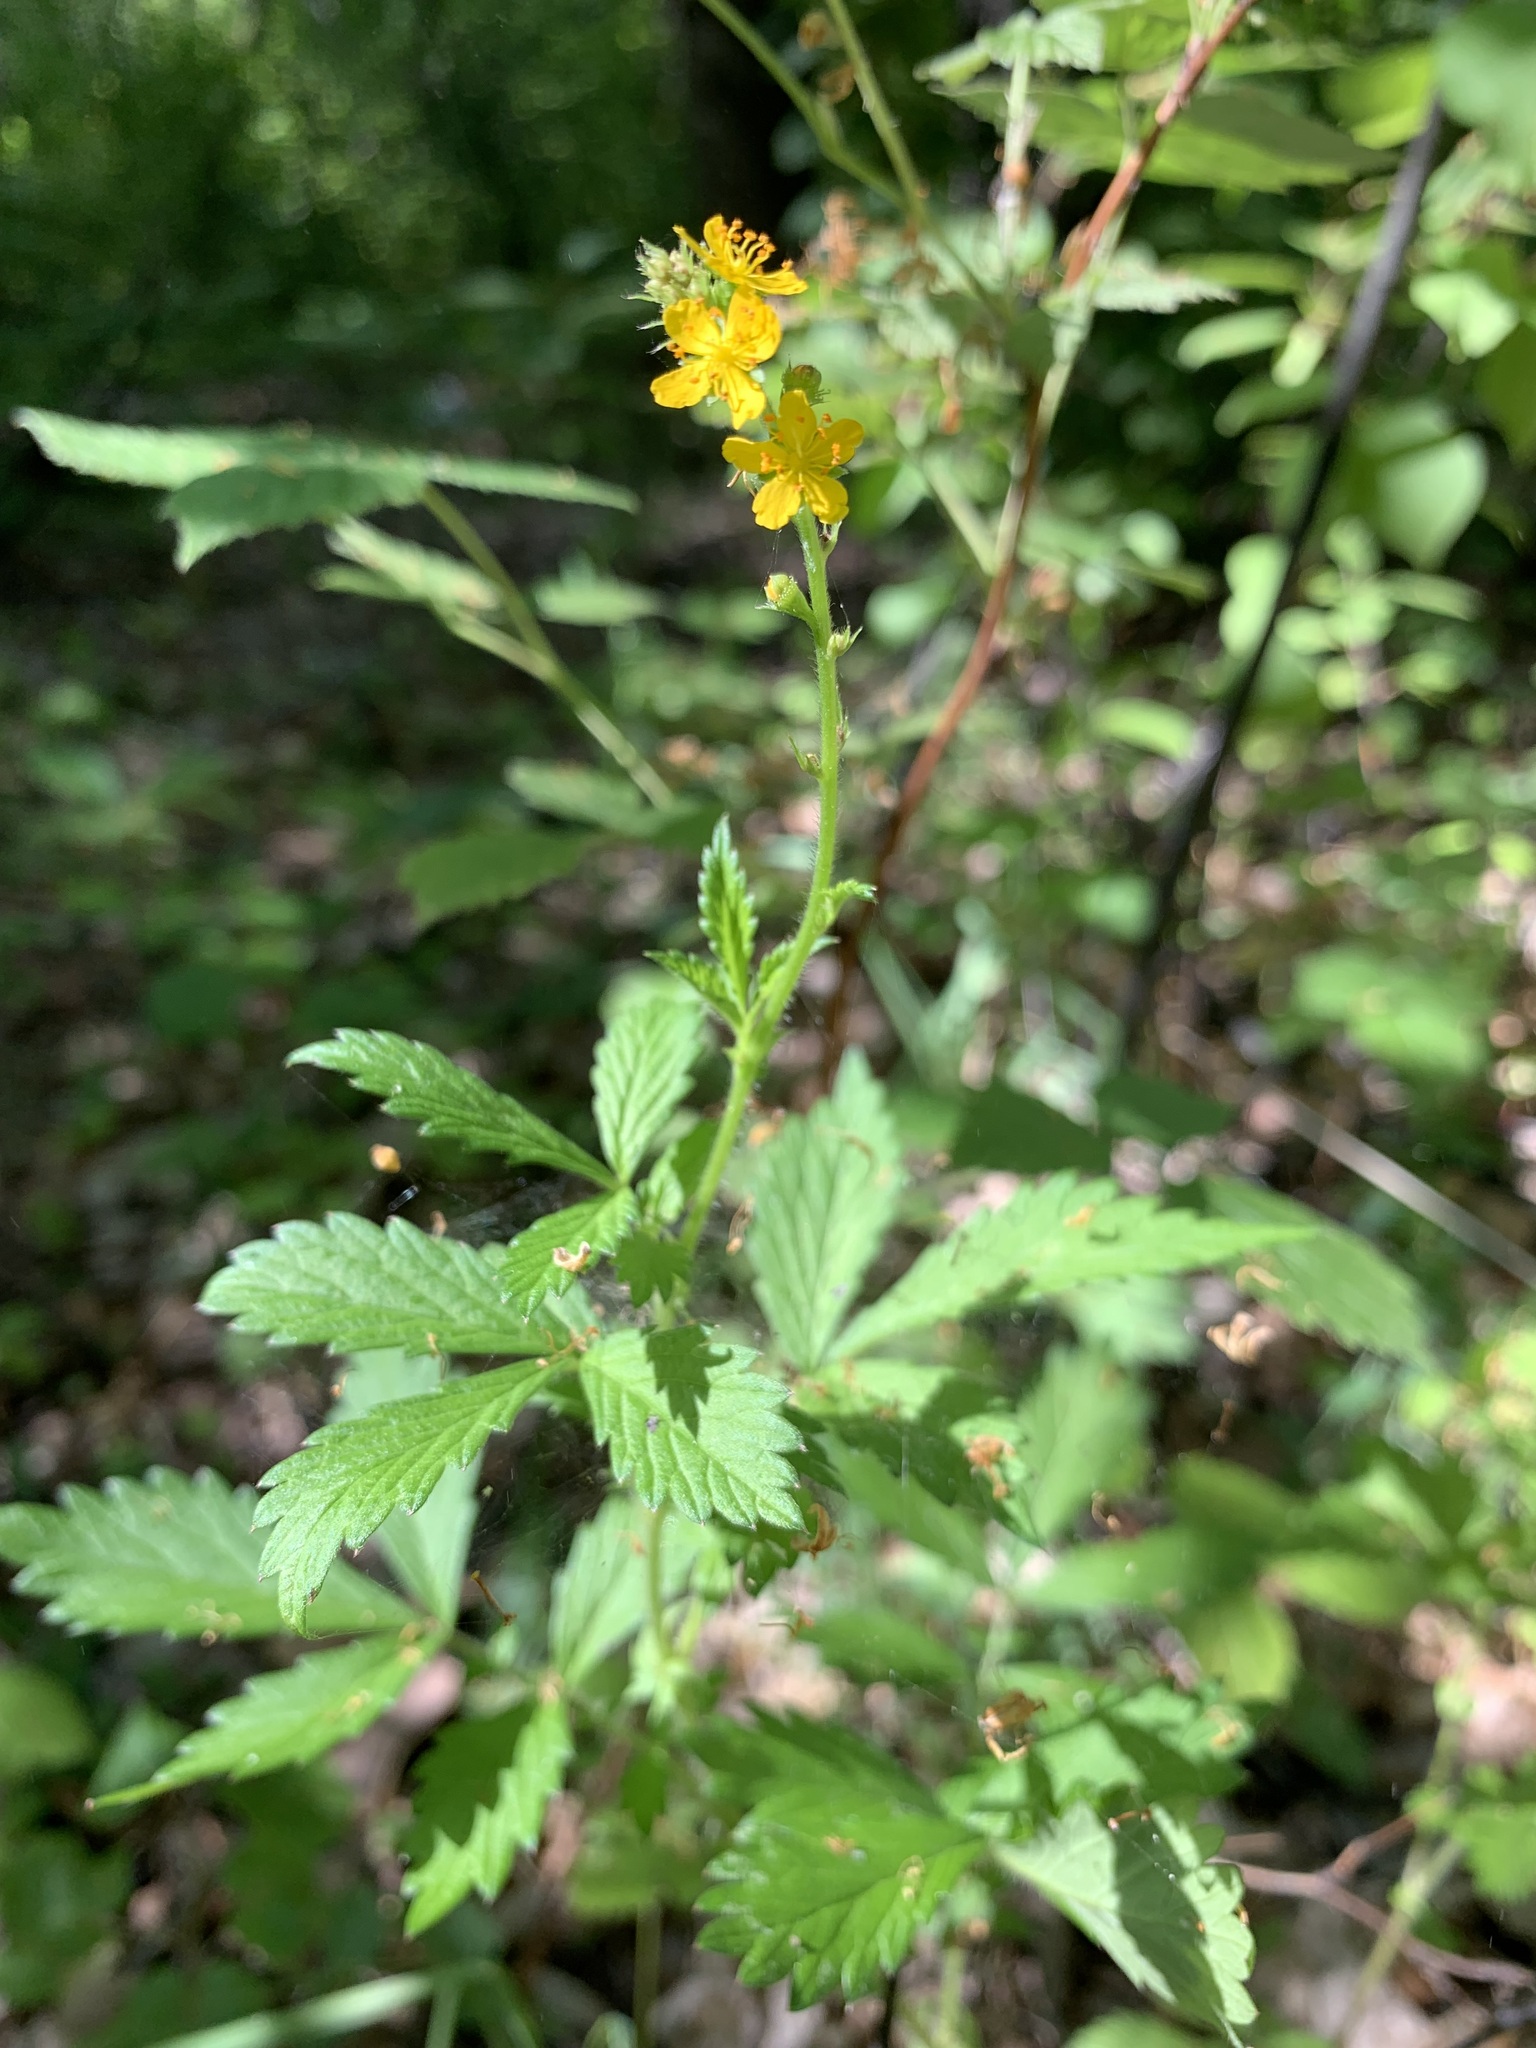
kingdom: Plantae
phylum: Tracheophyta
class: Magnoliopsida
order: Rosales
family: Rosaceae
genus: Agrimonia
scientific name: Agrimonia pilosa
